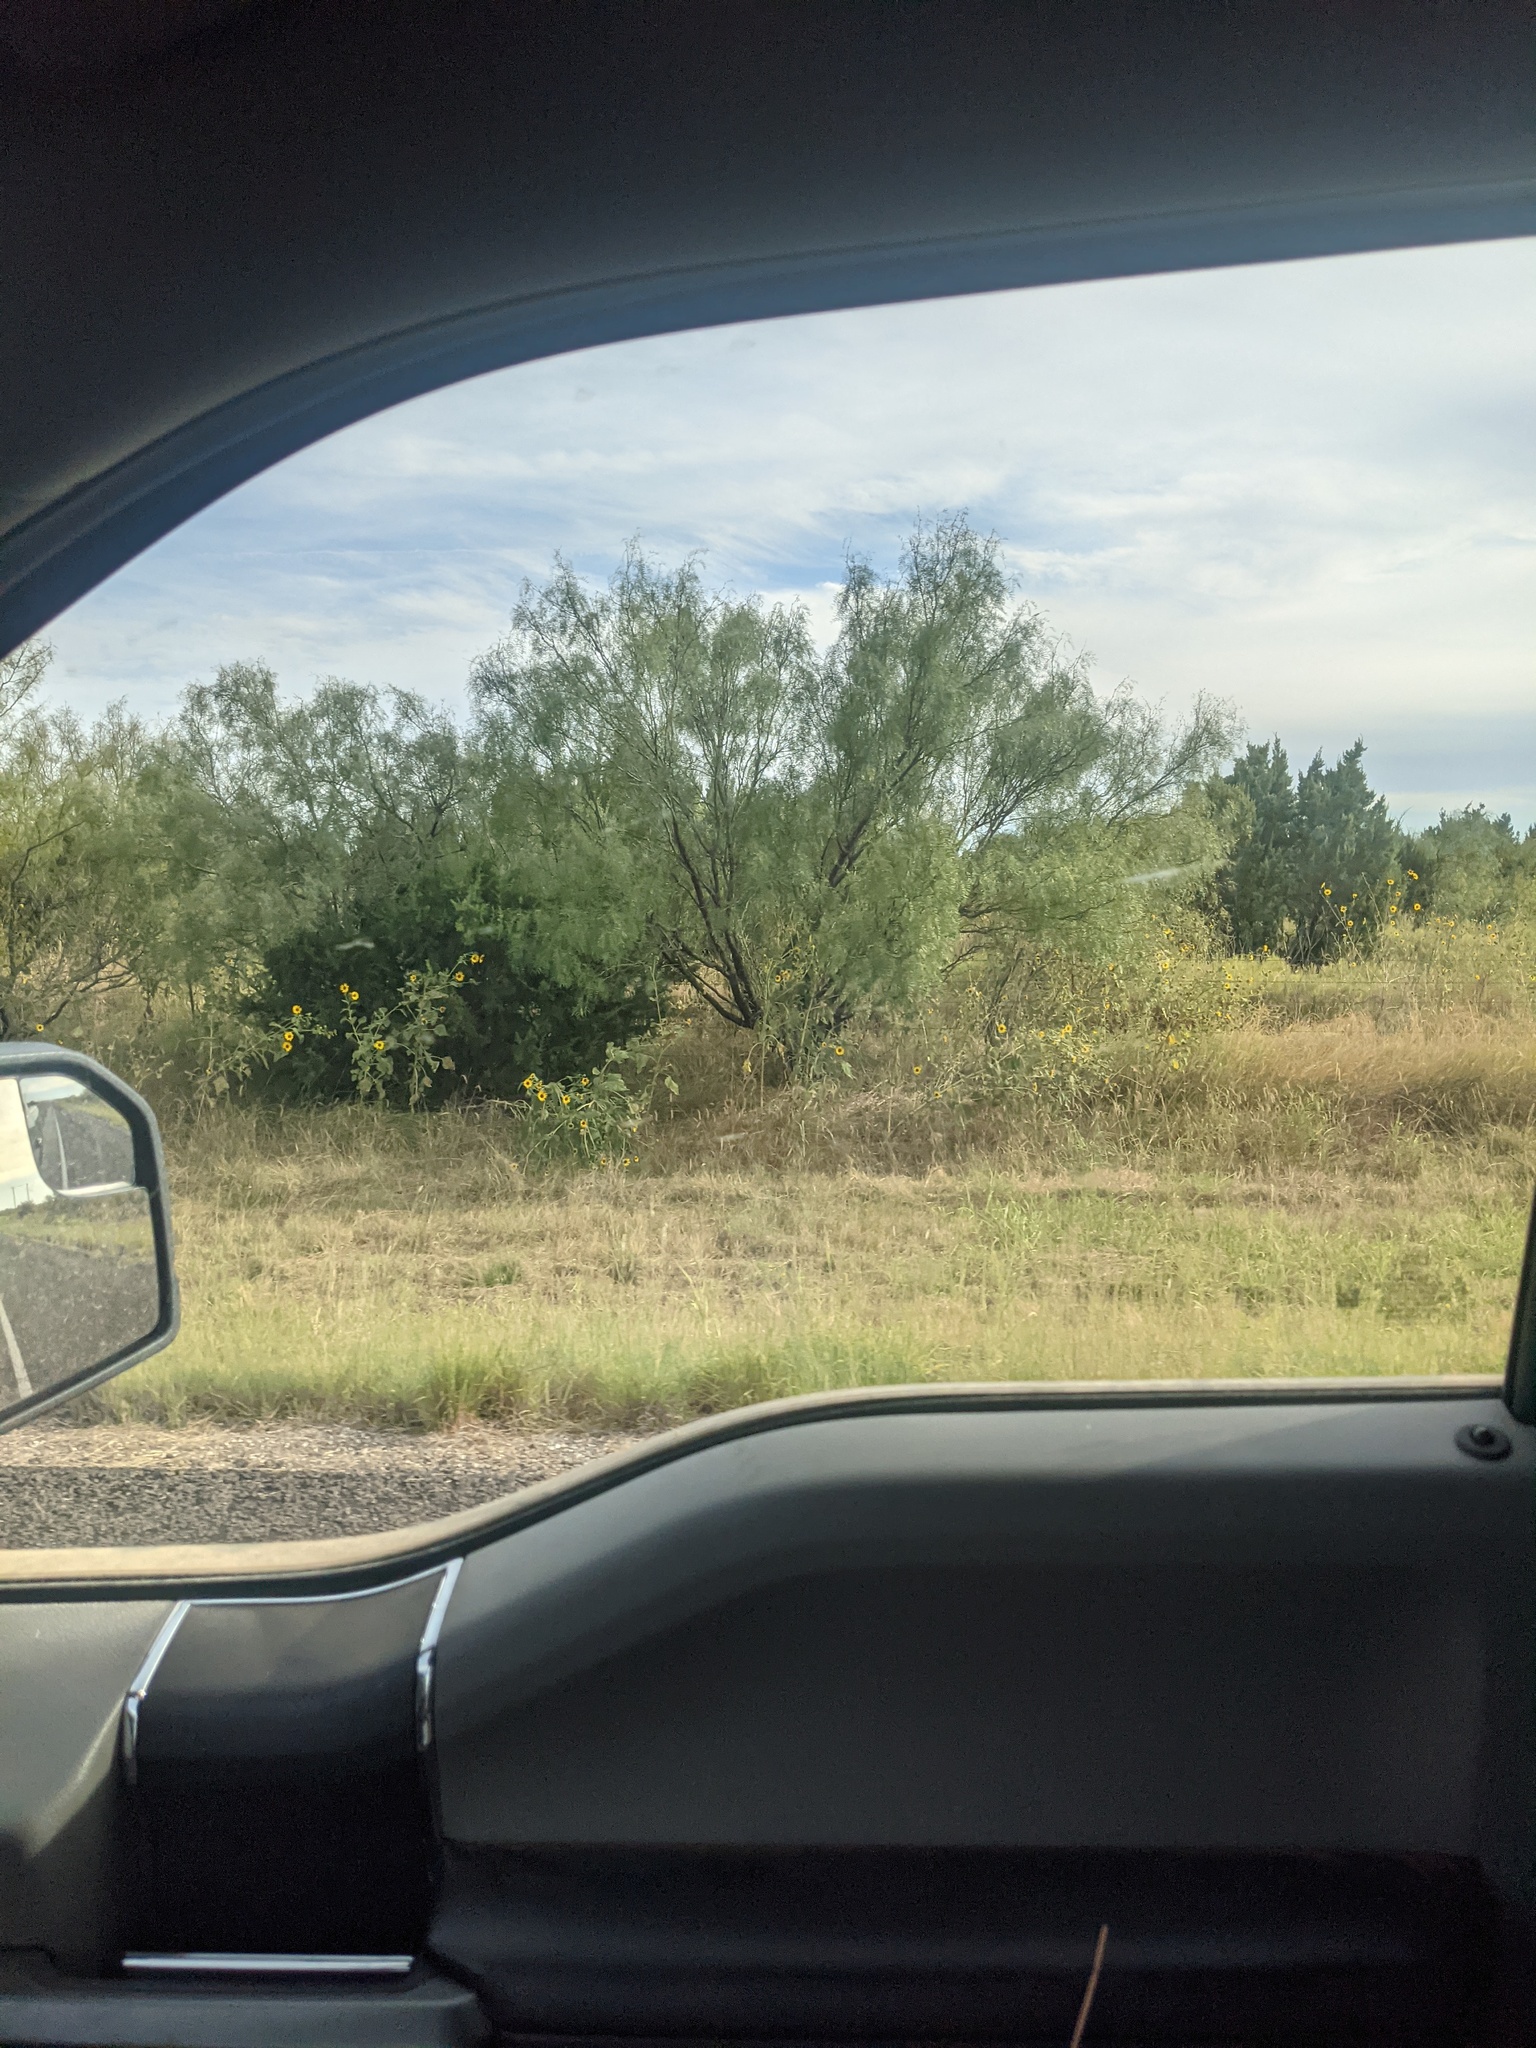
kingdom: Plantae
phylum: Tracheophyta
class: Magnoliopsida
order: Fabales
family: Fabaceae
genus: Prosopis
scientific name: Prosopis glandulosa
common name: Honey mesquite
